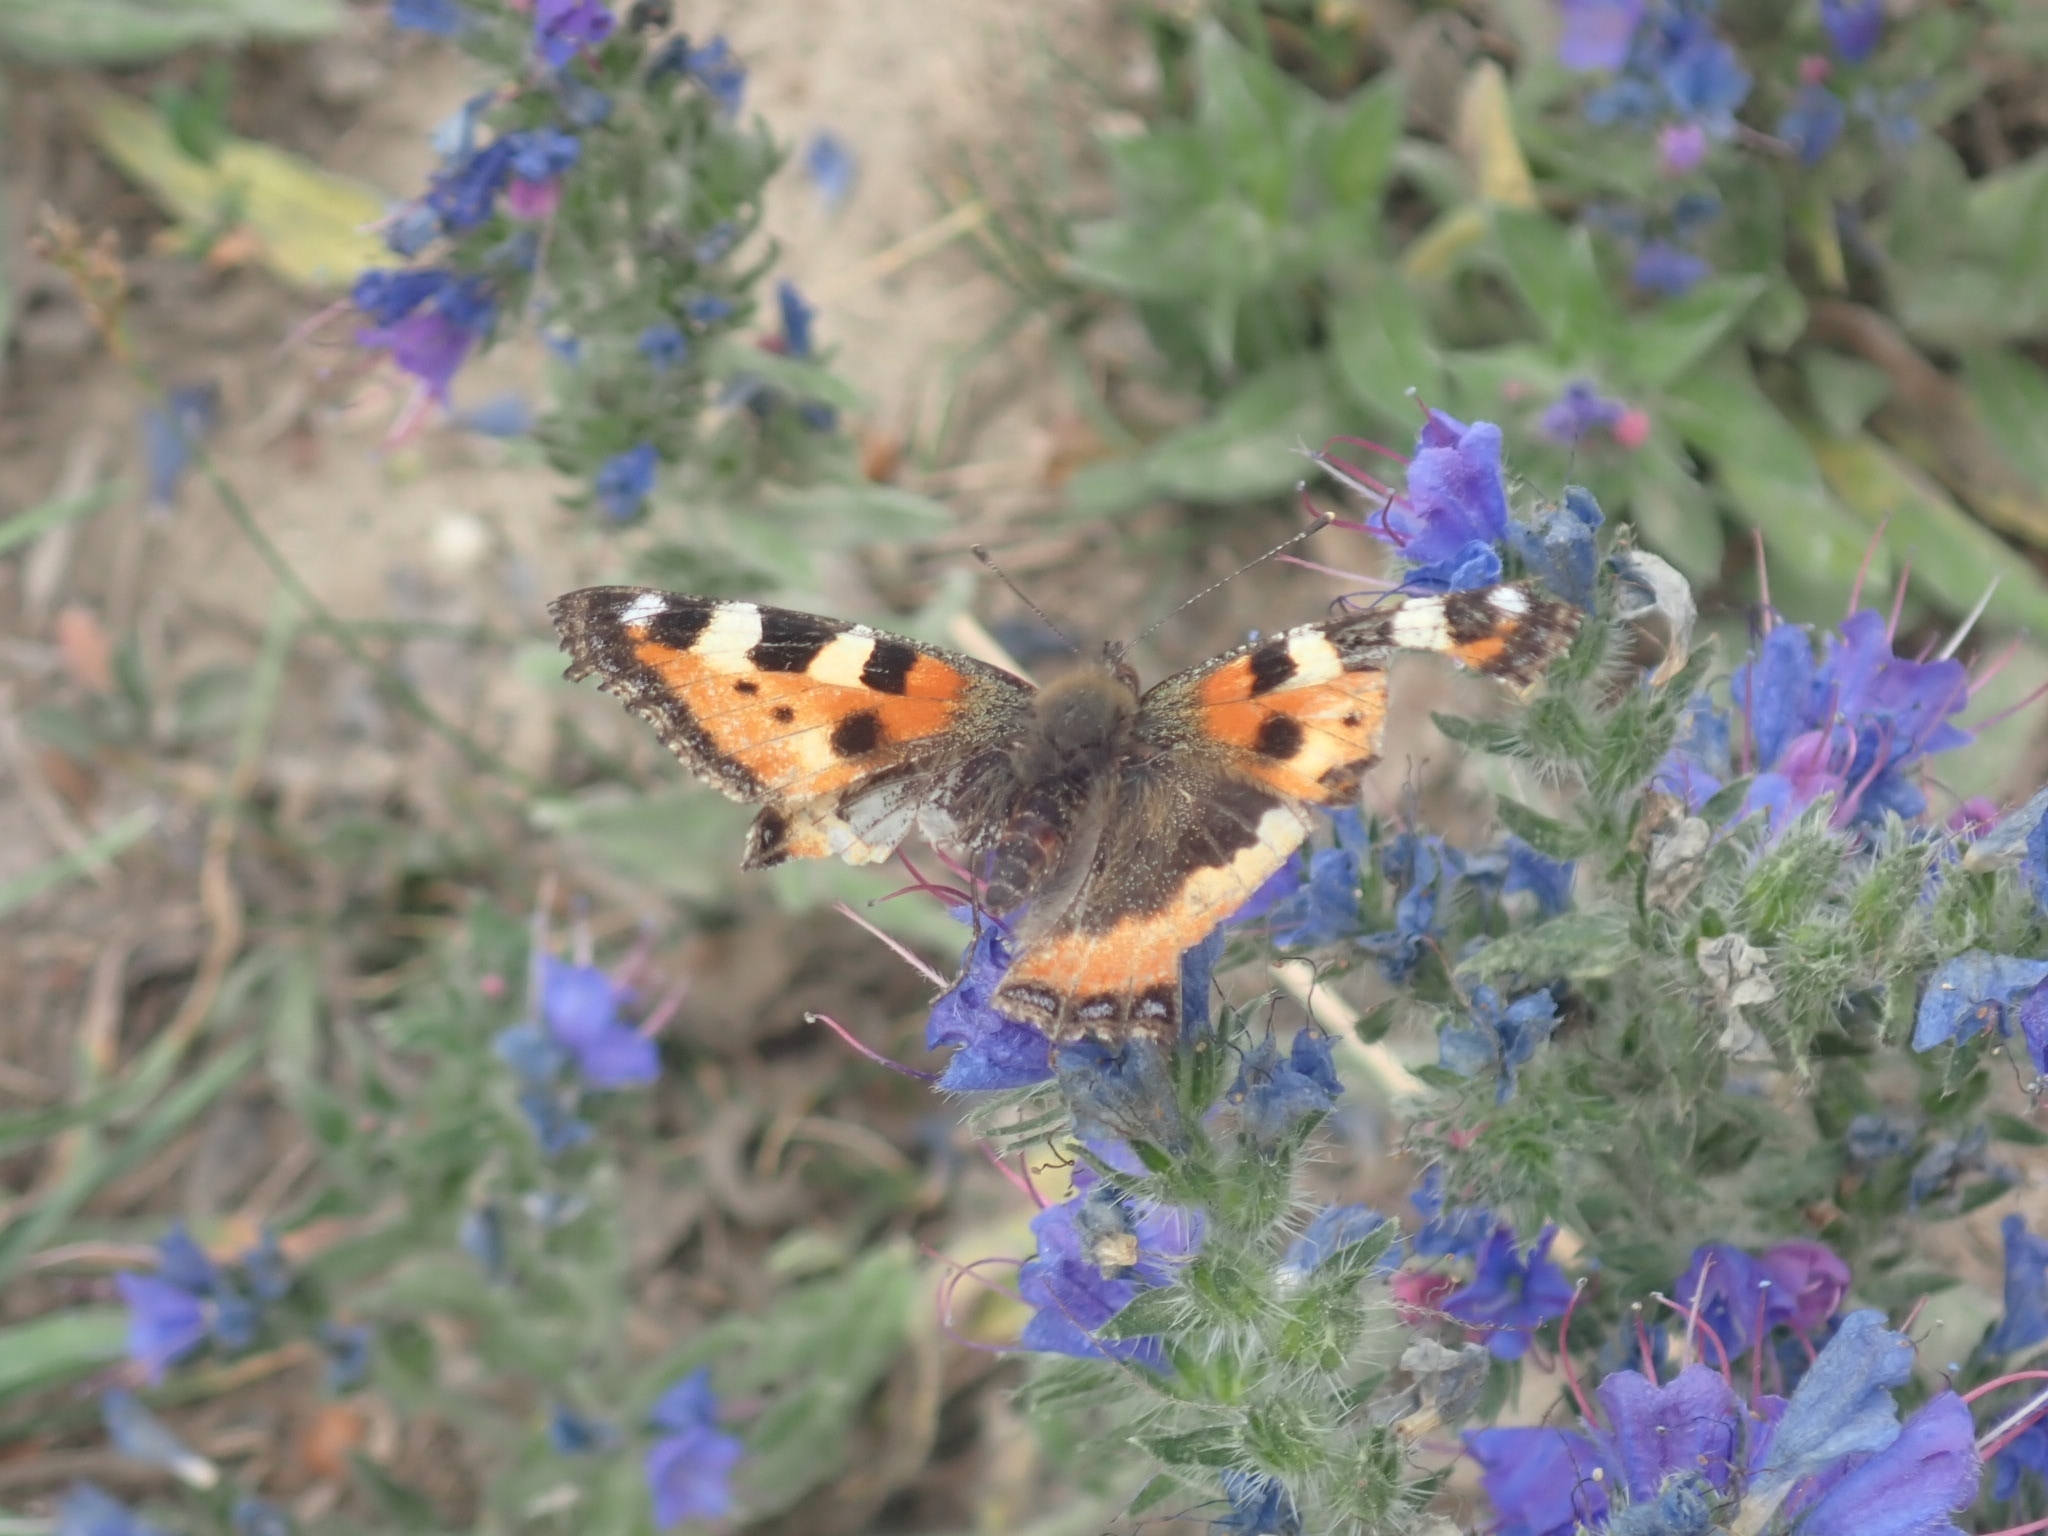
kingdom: Animalia
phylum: Arthropoda
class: Insecta
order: Lepidoptera
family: Nymphalidae
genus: Aglais
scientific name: Aglais urticae
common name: Small tortoiseshell
